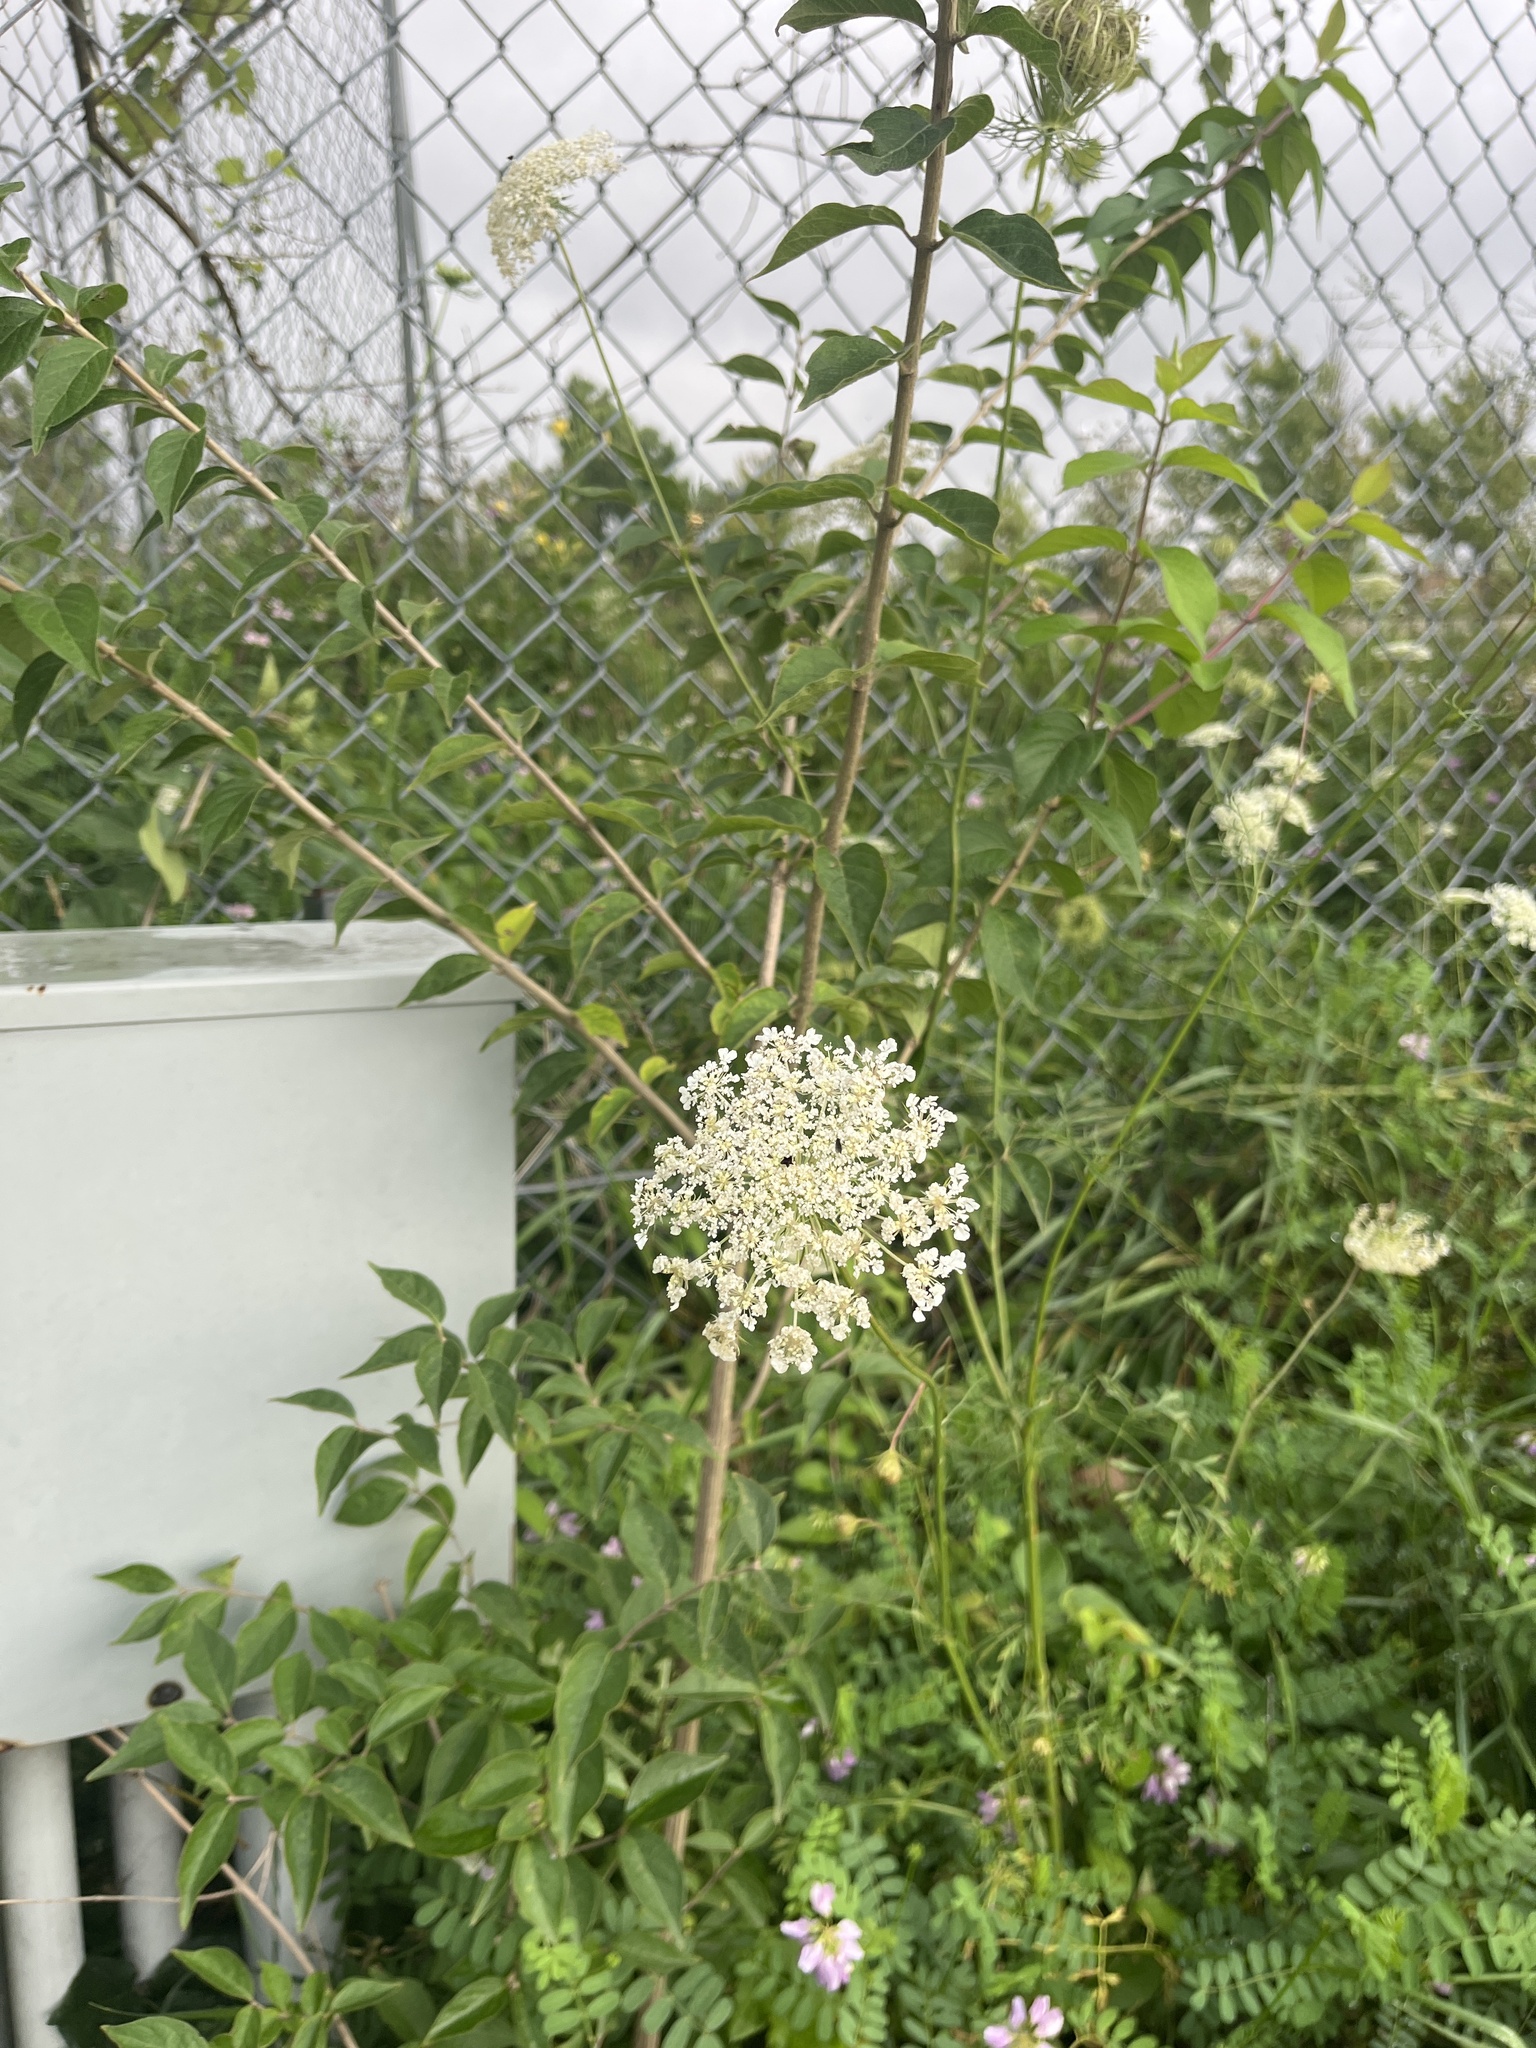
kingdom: Plantae
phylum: Tracheophyta
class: Magnoliopsida
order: Apiales
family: Apiaceae
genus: Daucus
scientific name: Daucus carota
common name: Wild carrot
